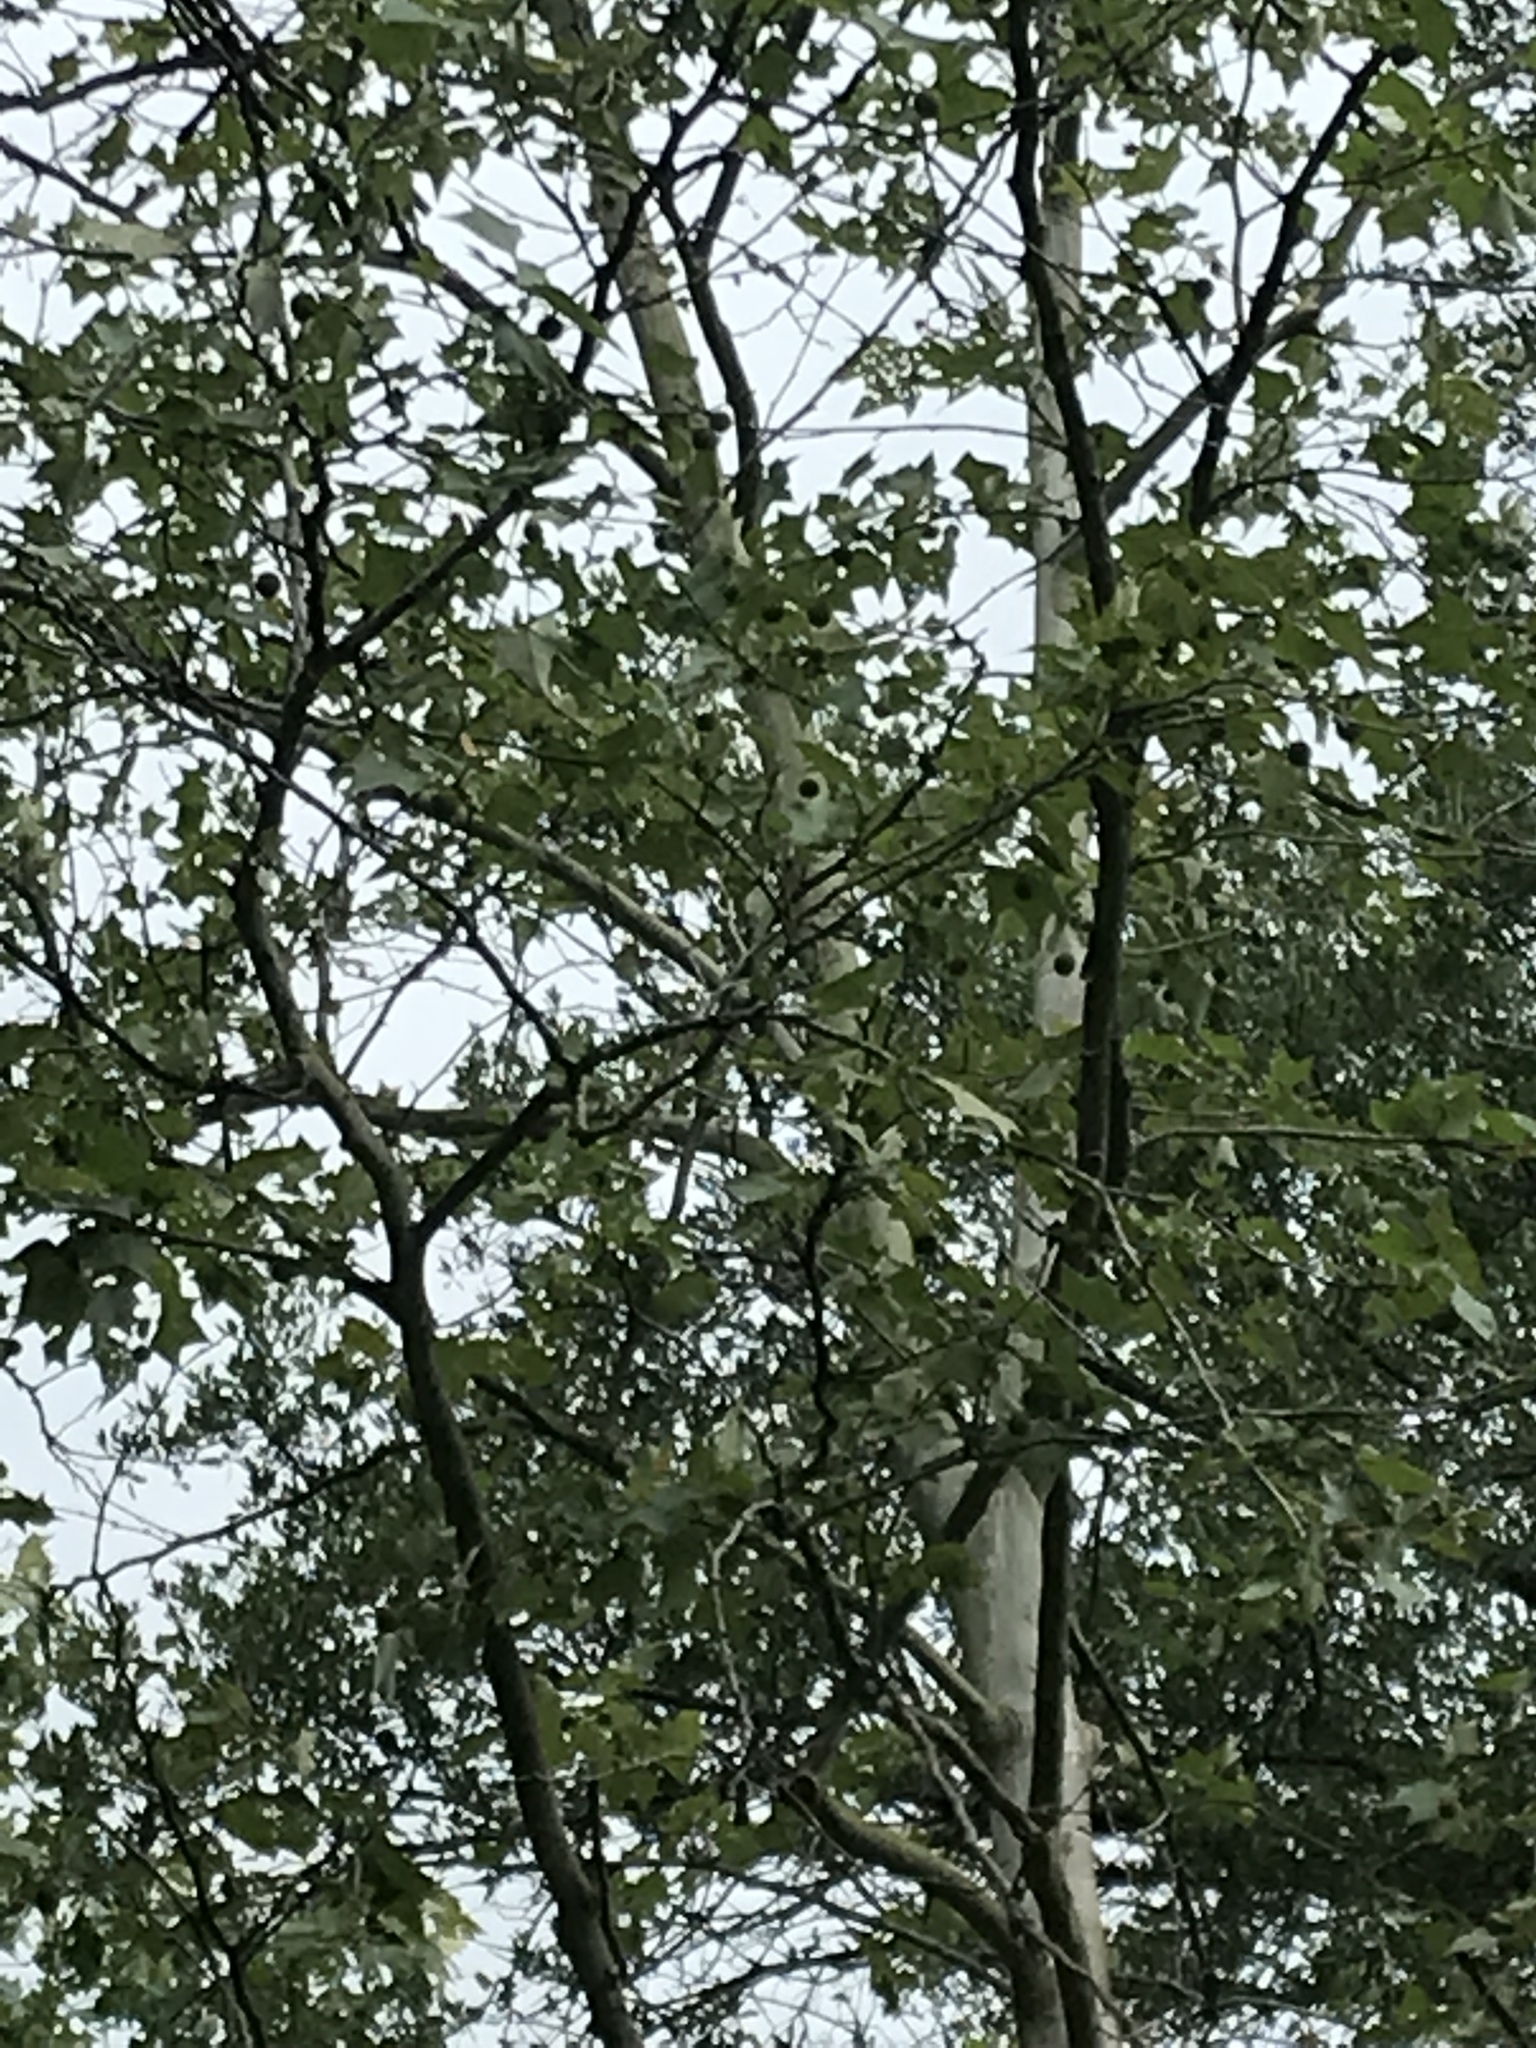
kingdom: Plantae
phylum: Tracheophyta
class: Magnoliopsida
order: Proteales
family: Platanaceae
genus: Platanus
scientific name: Platanus rzedowskii
